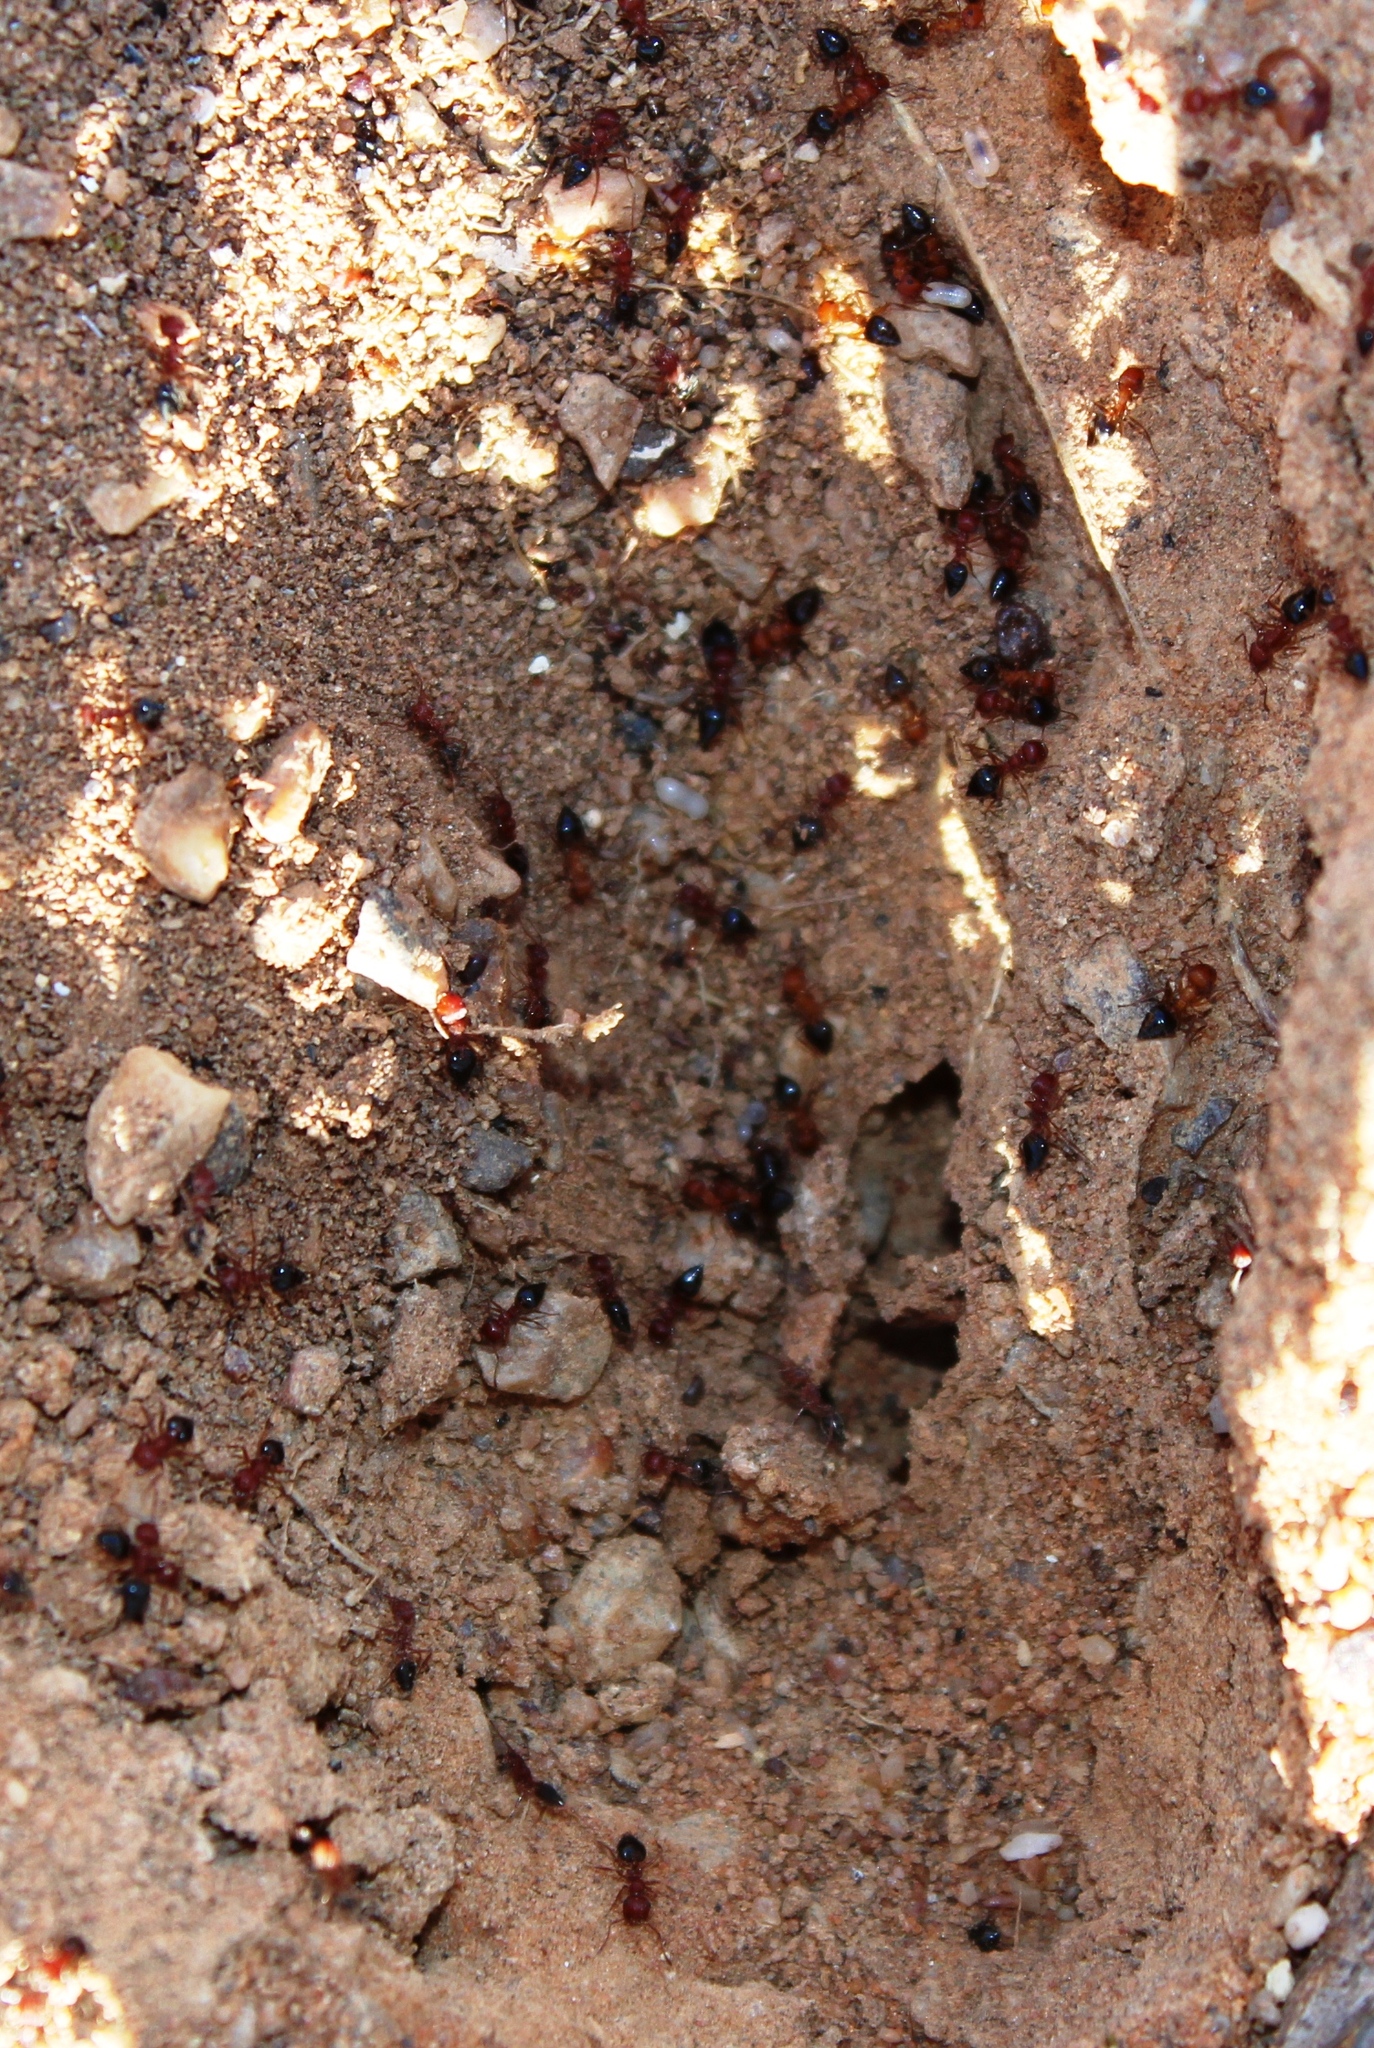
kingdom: Animalia
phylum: Arthropoda
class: Insecta
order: Hymenoptera
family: Formicidae
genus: Crematogaster
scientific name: Crematogaster melanogaster
